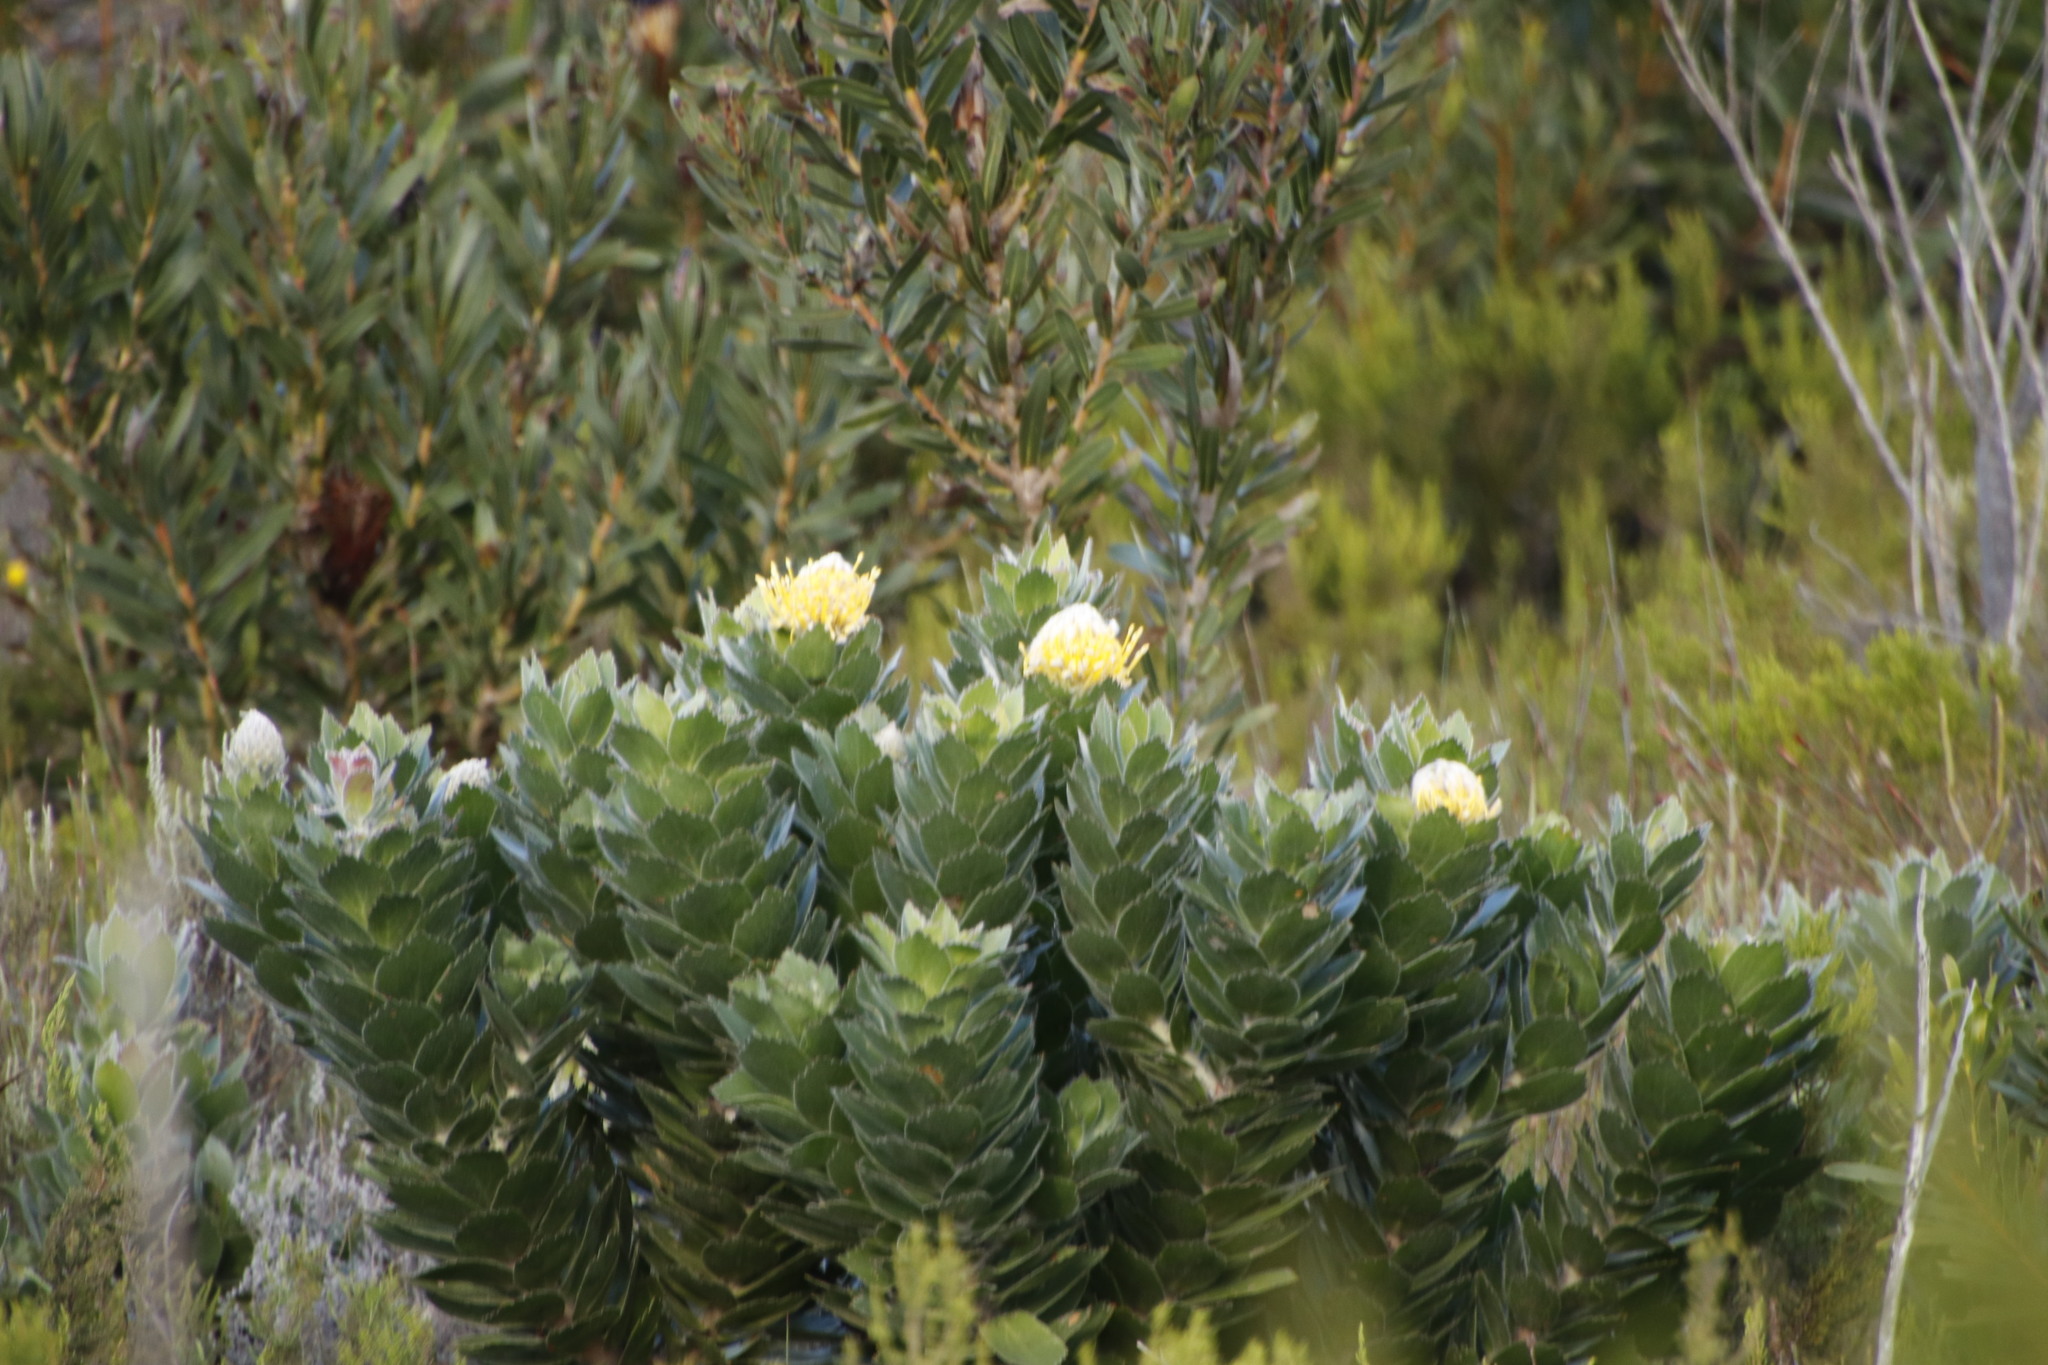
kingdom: Plantae
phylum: Tracheophyta
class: Magnoliopsida
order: Proteales
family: Proteaceae
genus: Leucospermum
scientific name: Leucospermum conocarpodendron
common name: Tree pincushion
